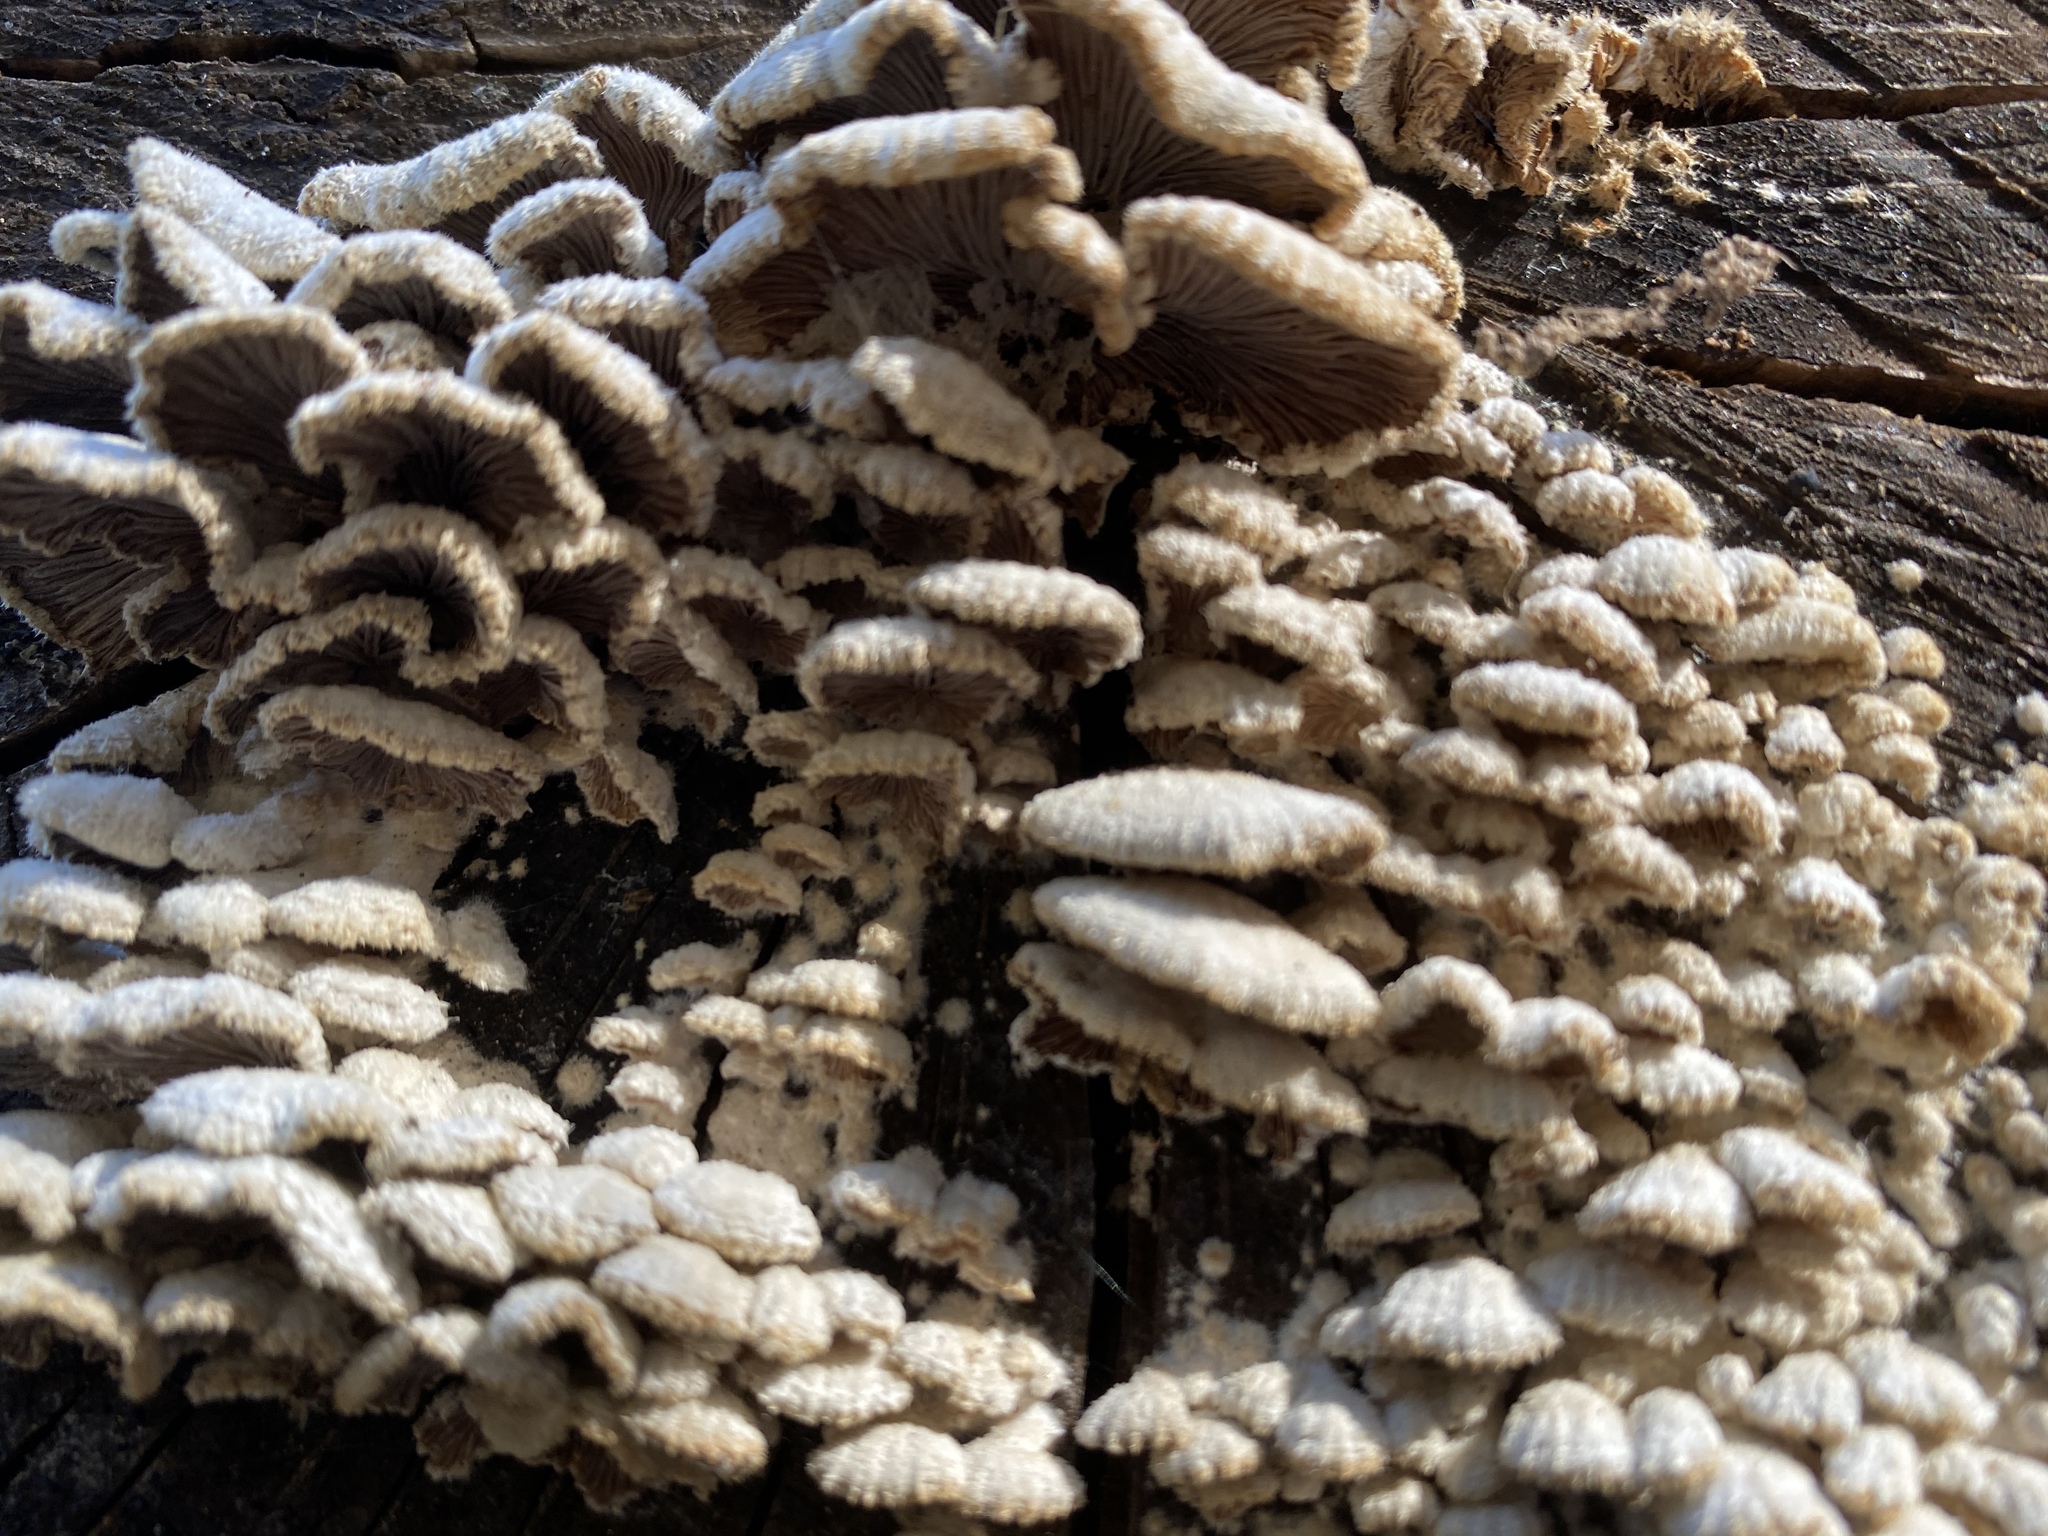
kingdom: Fungi
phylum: Basidiomycota
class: Agaricomycetes
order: Agaricales
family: Schizophyllaceae
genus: Schizophyllum
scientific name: Schizophyllum commune
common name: Common porecrust
